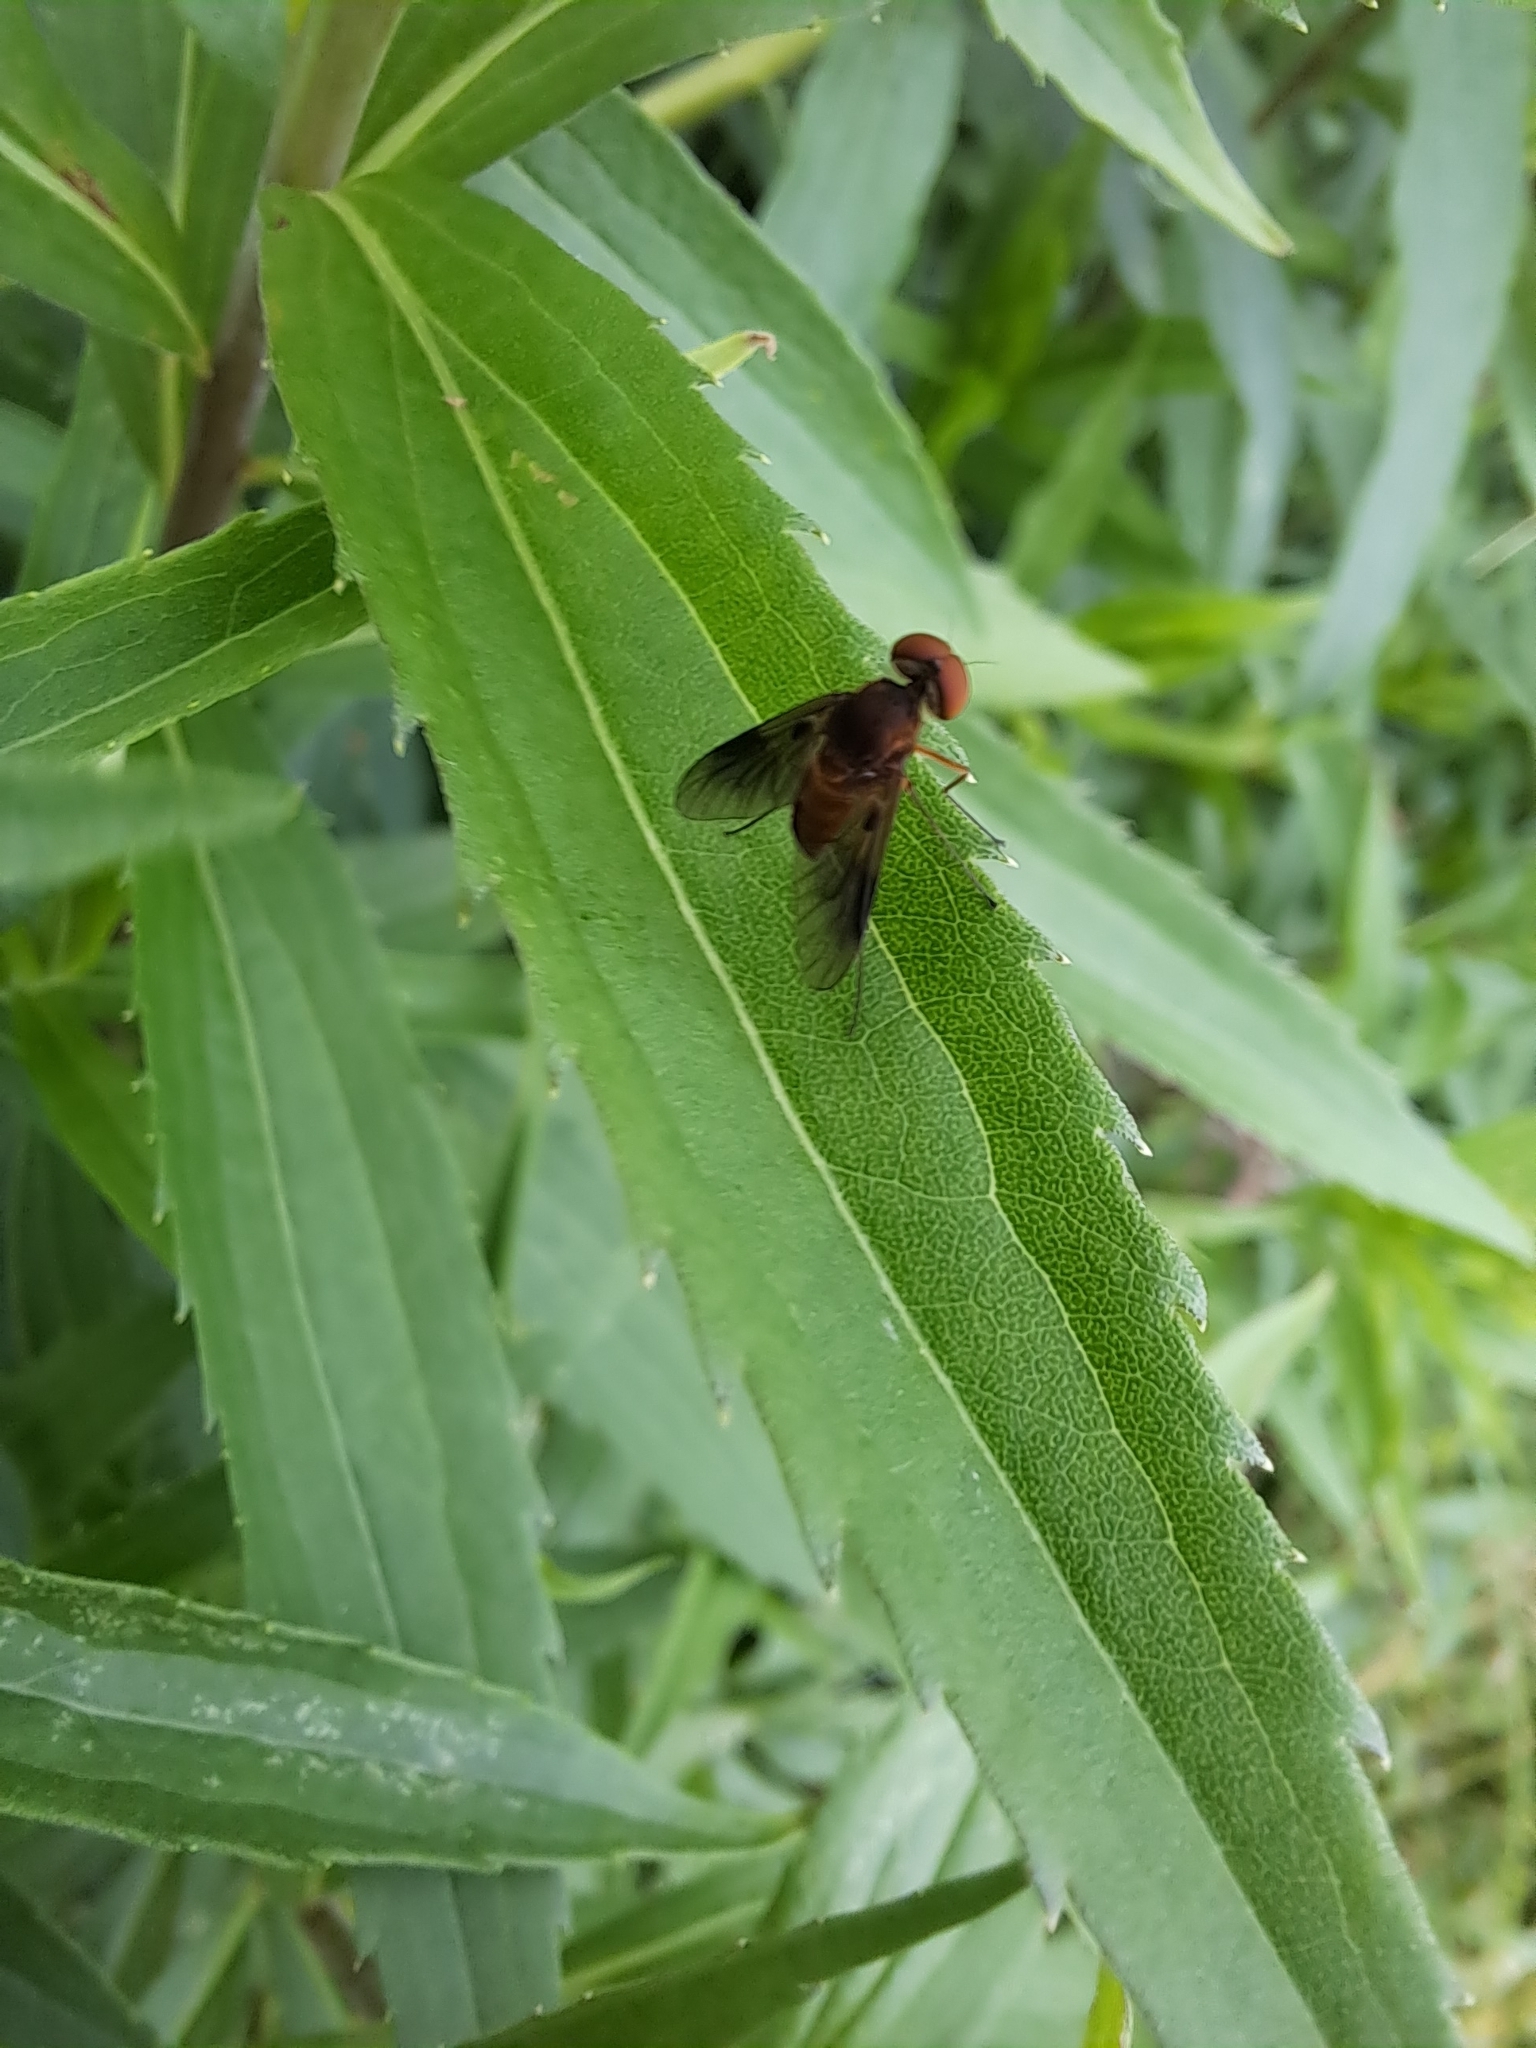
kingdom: Animalia
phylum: Arthropoda
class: Insecta
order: Diptera
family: Rhagionidae
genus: Chrysopilus
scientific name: Chrysopilus quadratus
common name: Quadrate snipe fly
